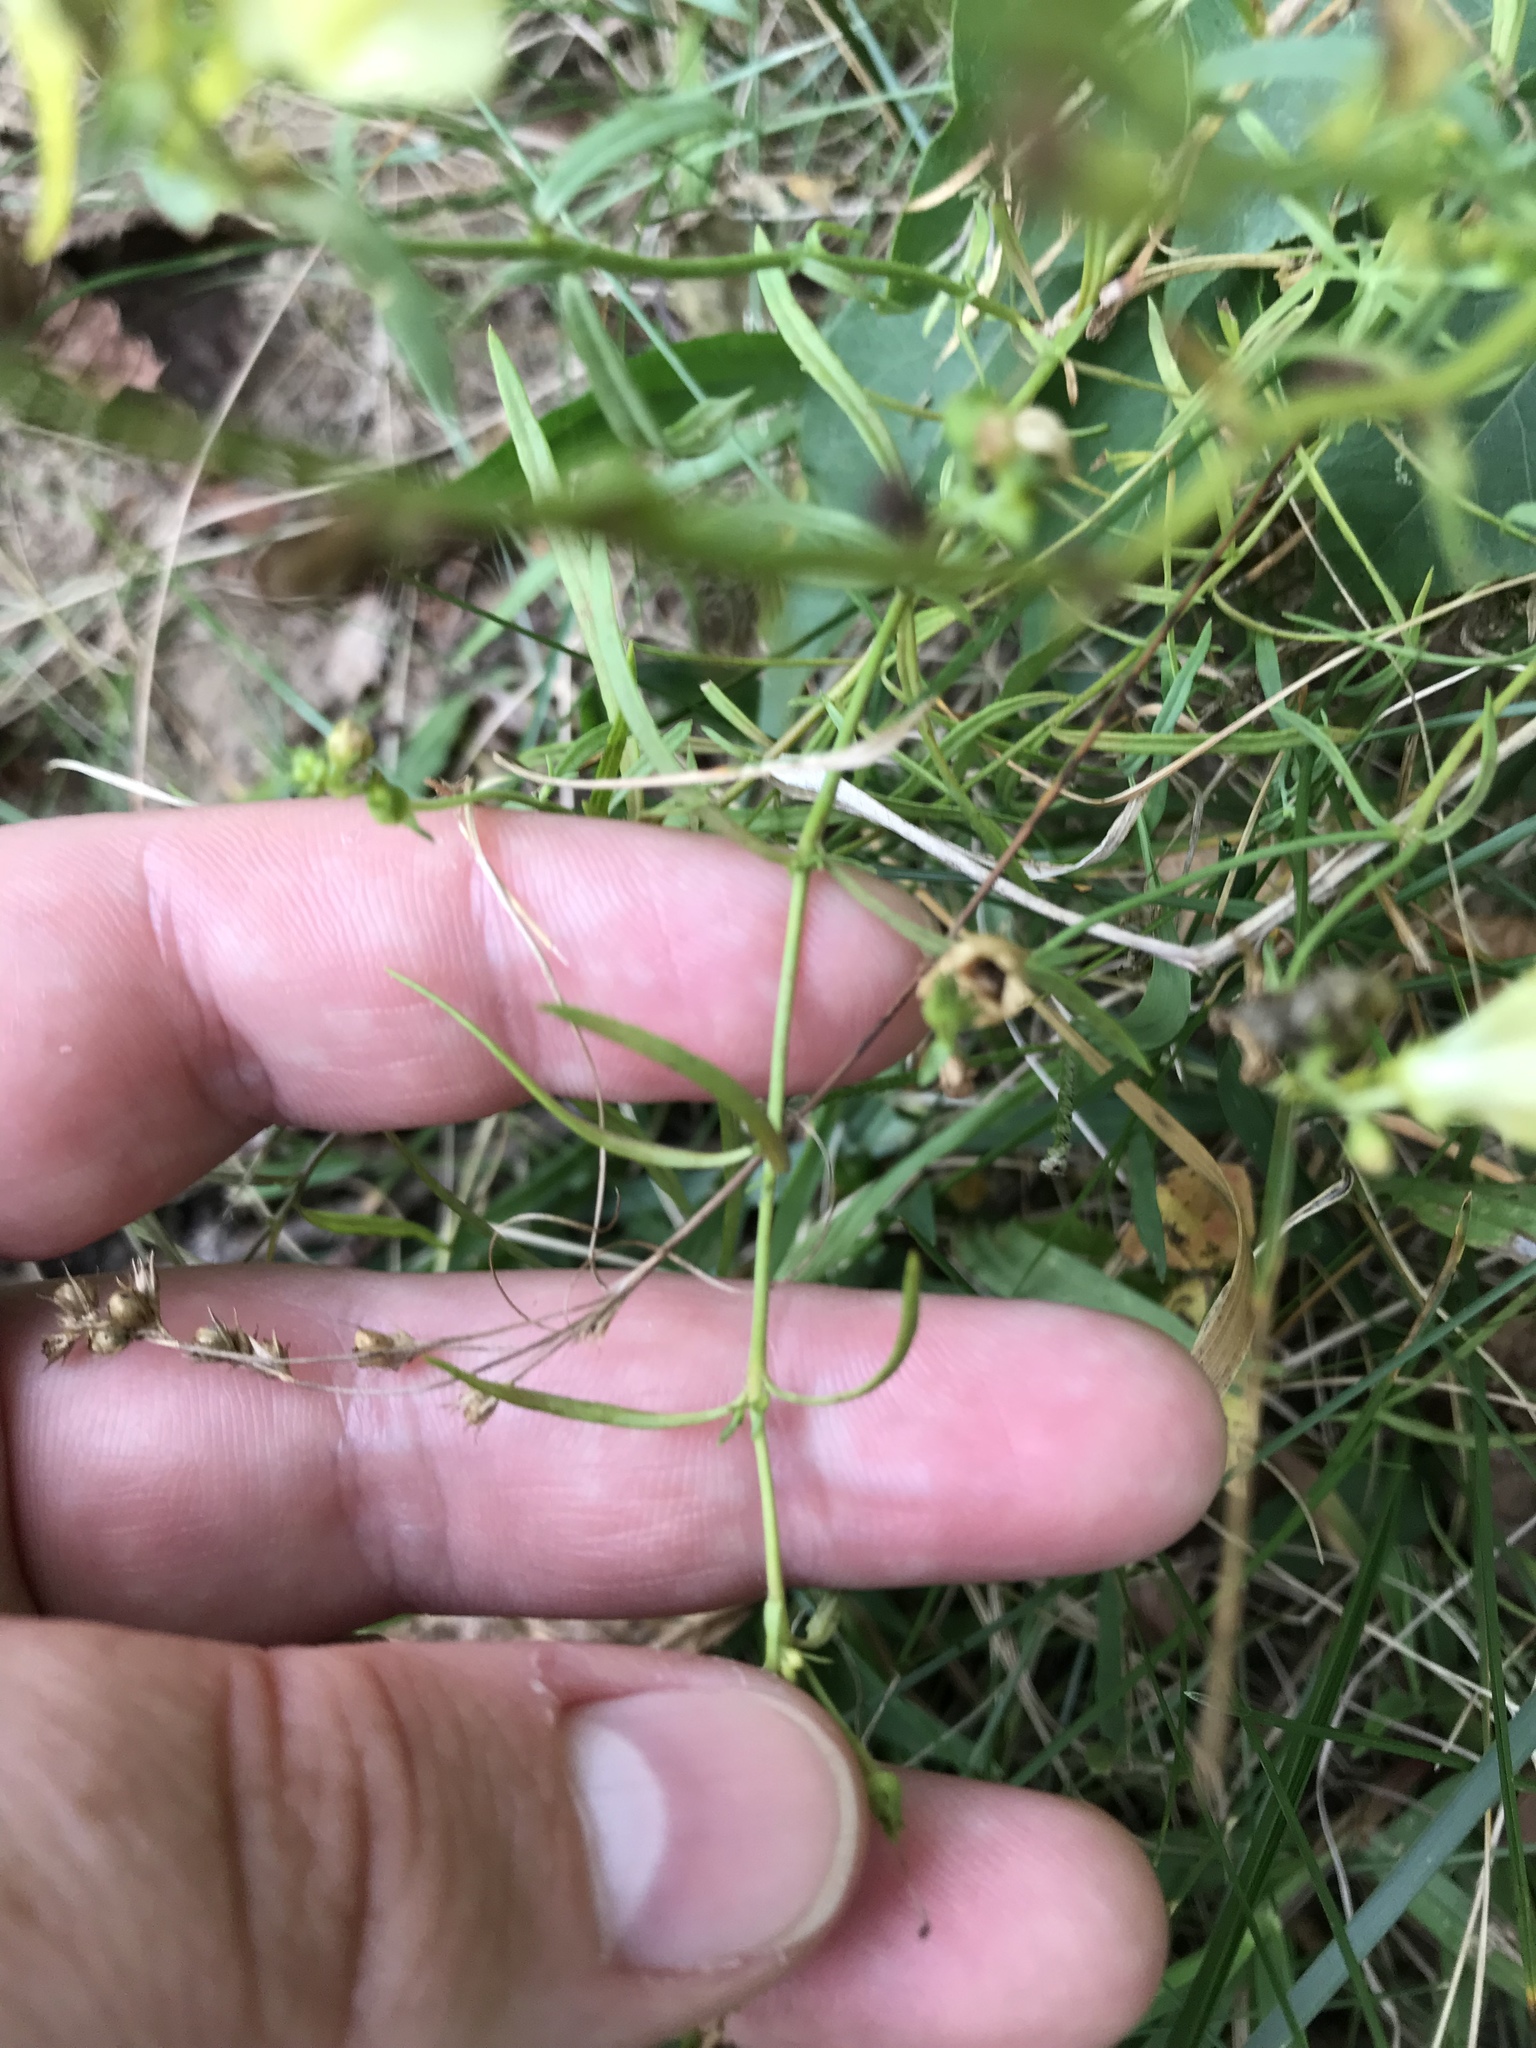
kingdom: Plantae
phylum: Tracheophyta
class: Magnoliopsida
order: Lamiales
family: Plantaginaceae
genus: Linaria
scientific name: Linaria vulgaris
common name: Butter and eggs
